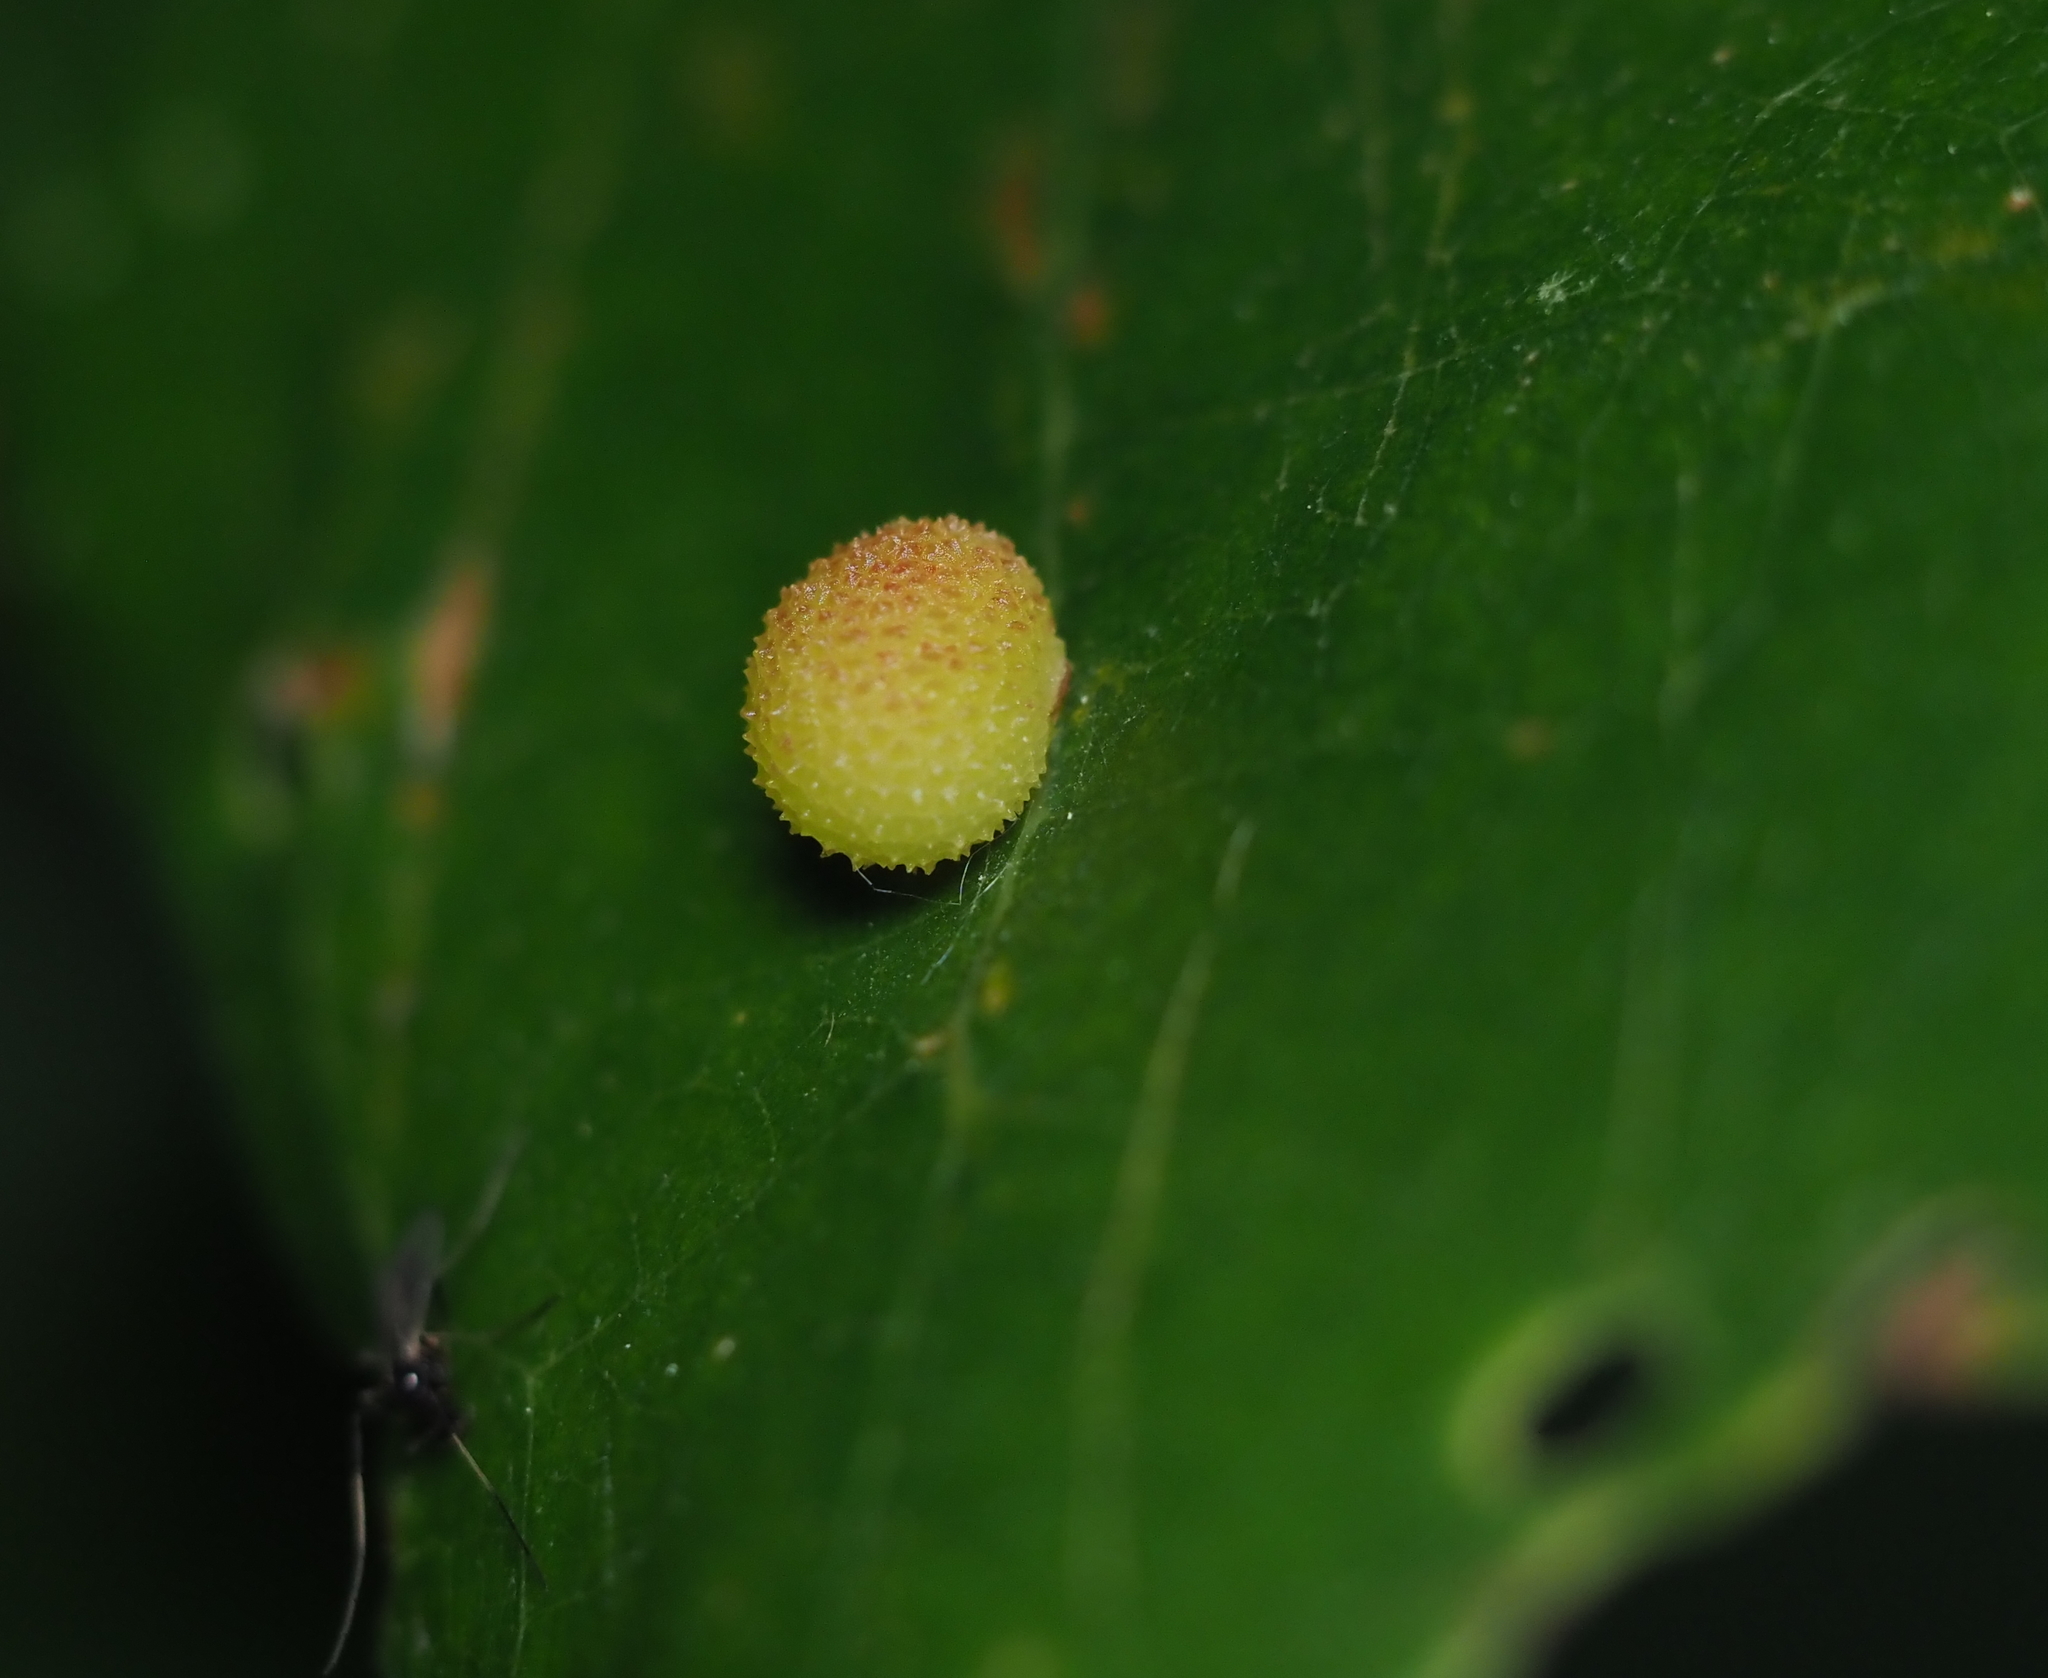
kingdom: Animalia
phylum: Arthropoda
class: Insecta
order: Hymenoptera
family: Cynipidae
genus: Acraspis
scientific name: Acraspis quercushirta
